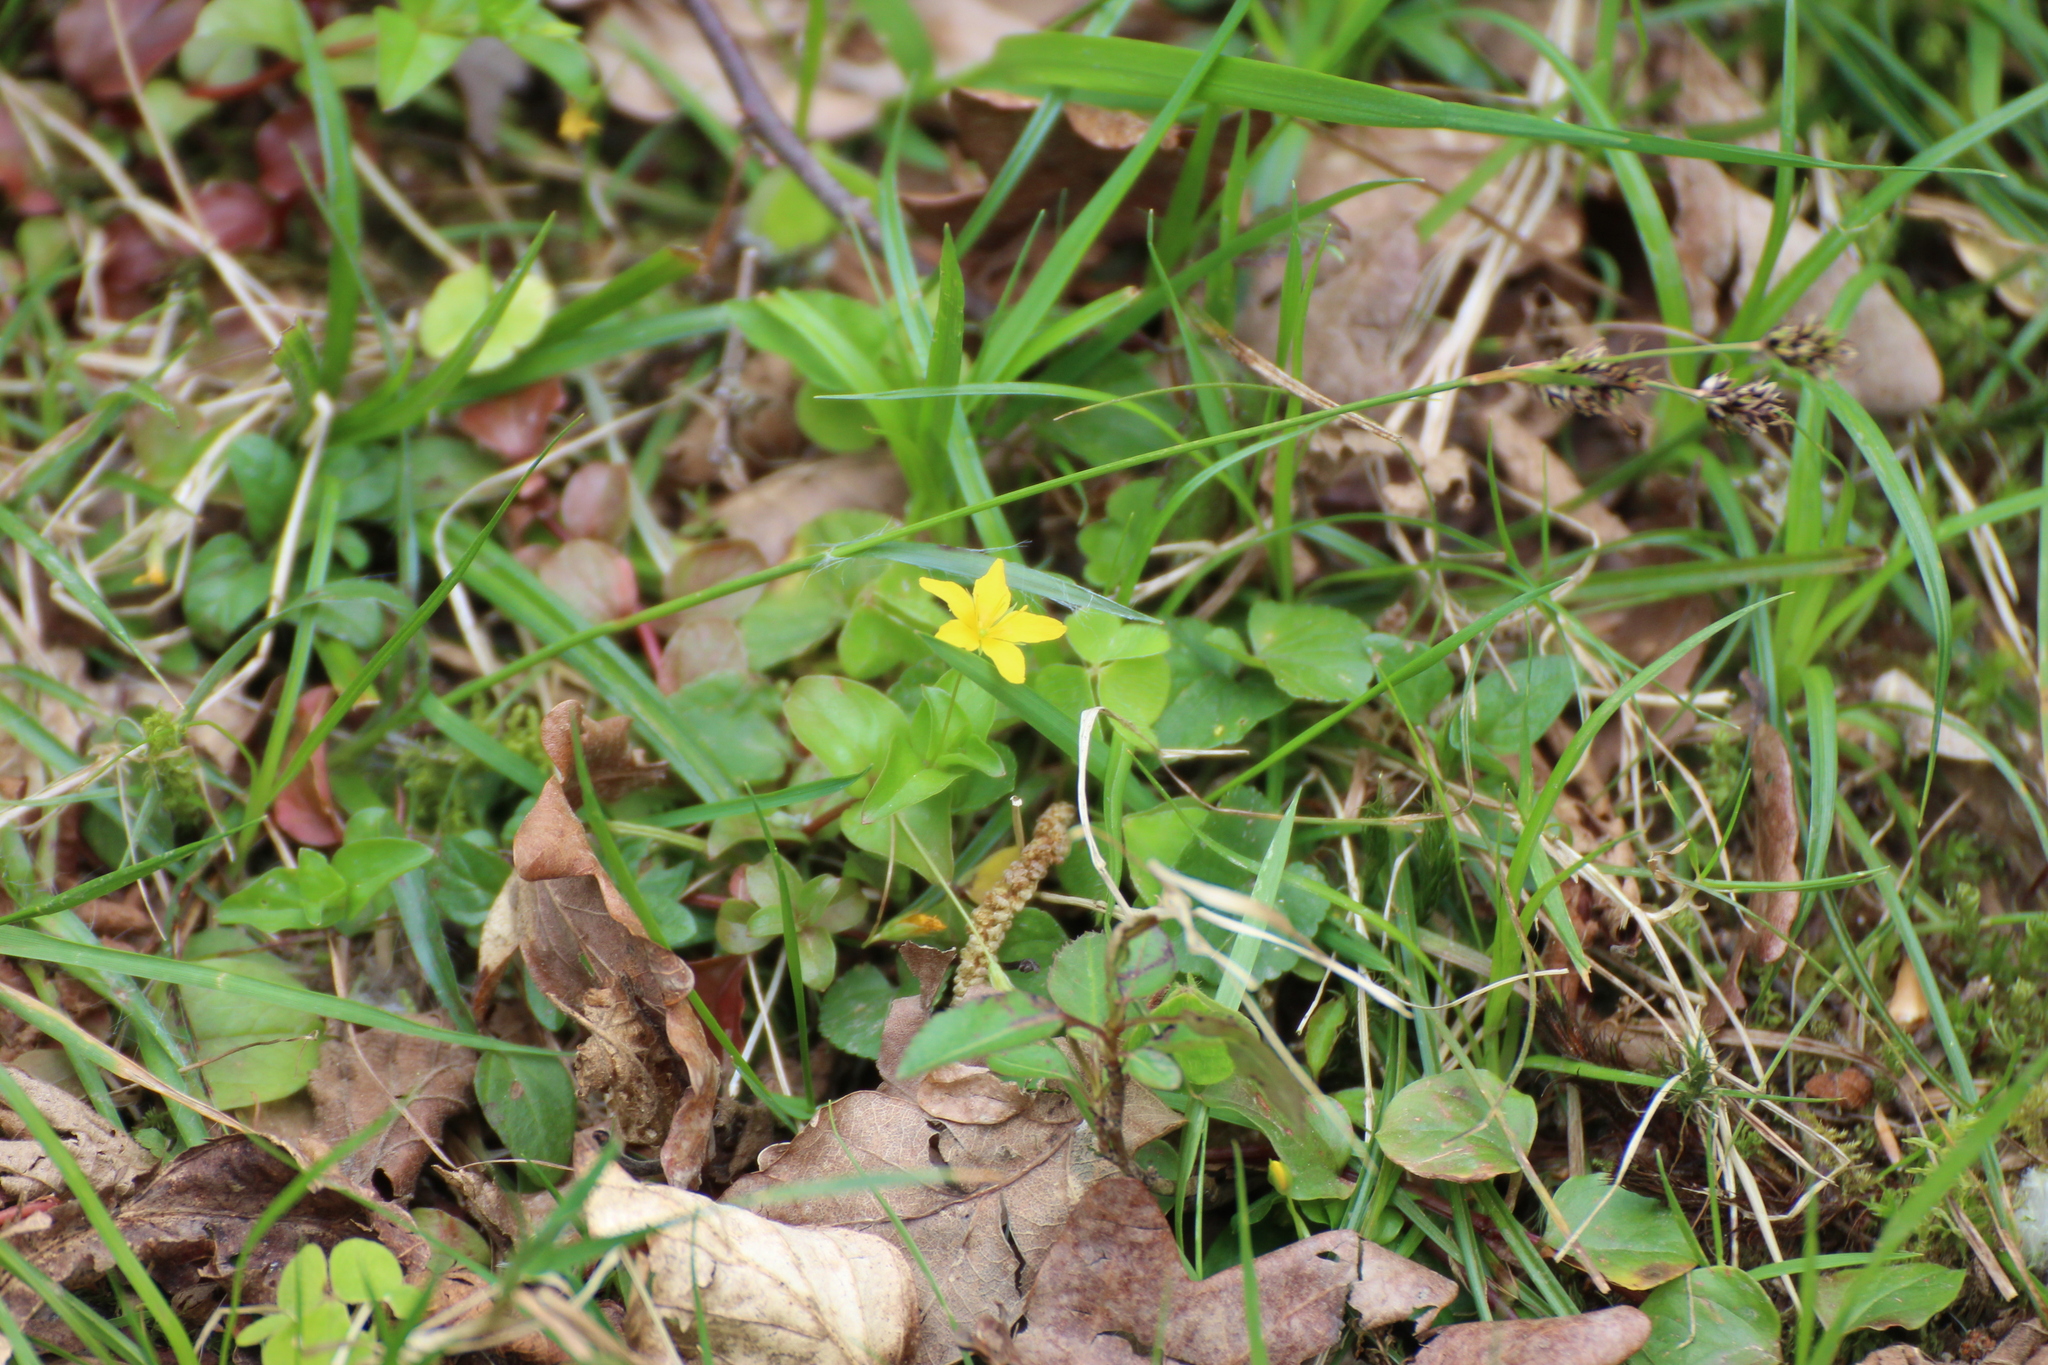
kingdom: Plantae
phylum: Tracheophyta
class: Magnoliopsida
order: Ericales
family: Primulaceae
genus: Lysimachia
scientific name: Lysimachia nemorum
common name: Yellow pimpernel
